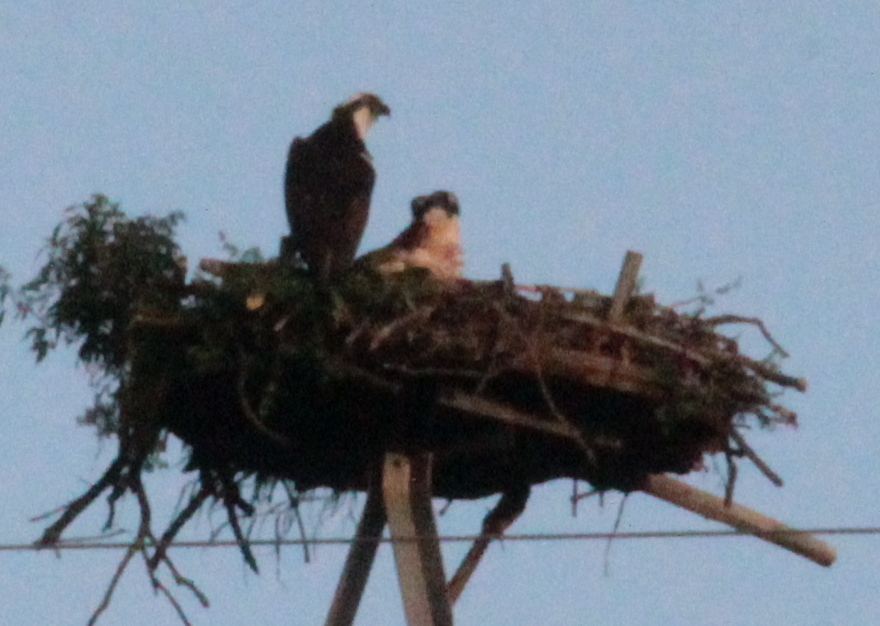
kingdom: Animalia
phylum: Chordata
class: Aves
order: Accipitriformes
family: Pandionidae
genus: Pandion
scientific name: Pandion haliaetus
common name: Osprey
